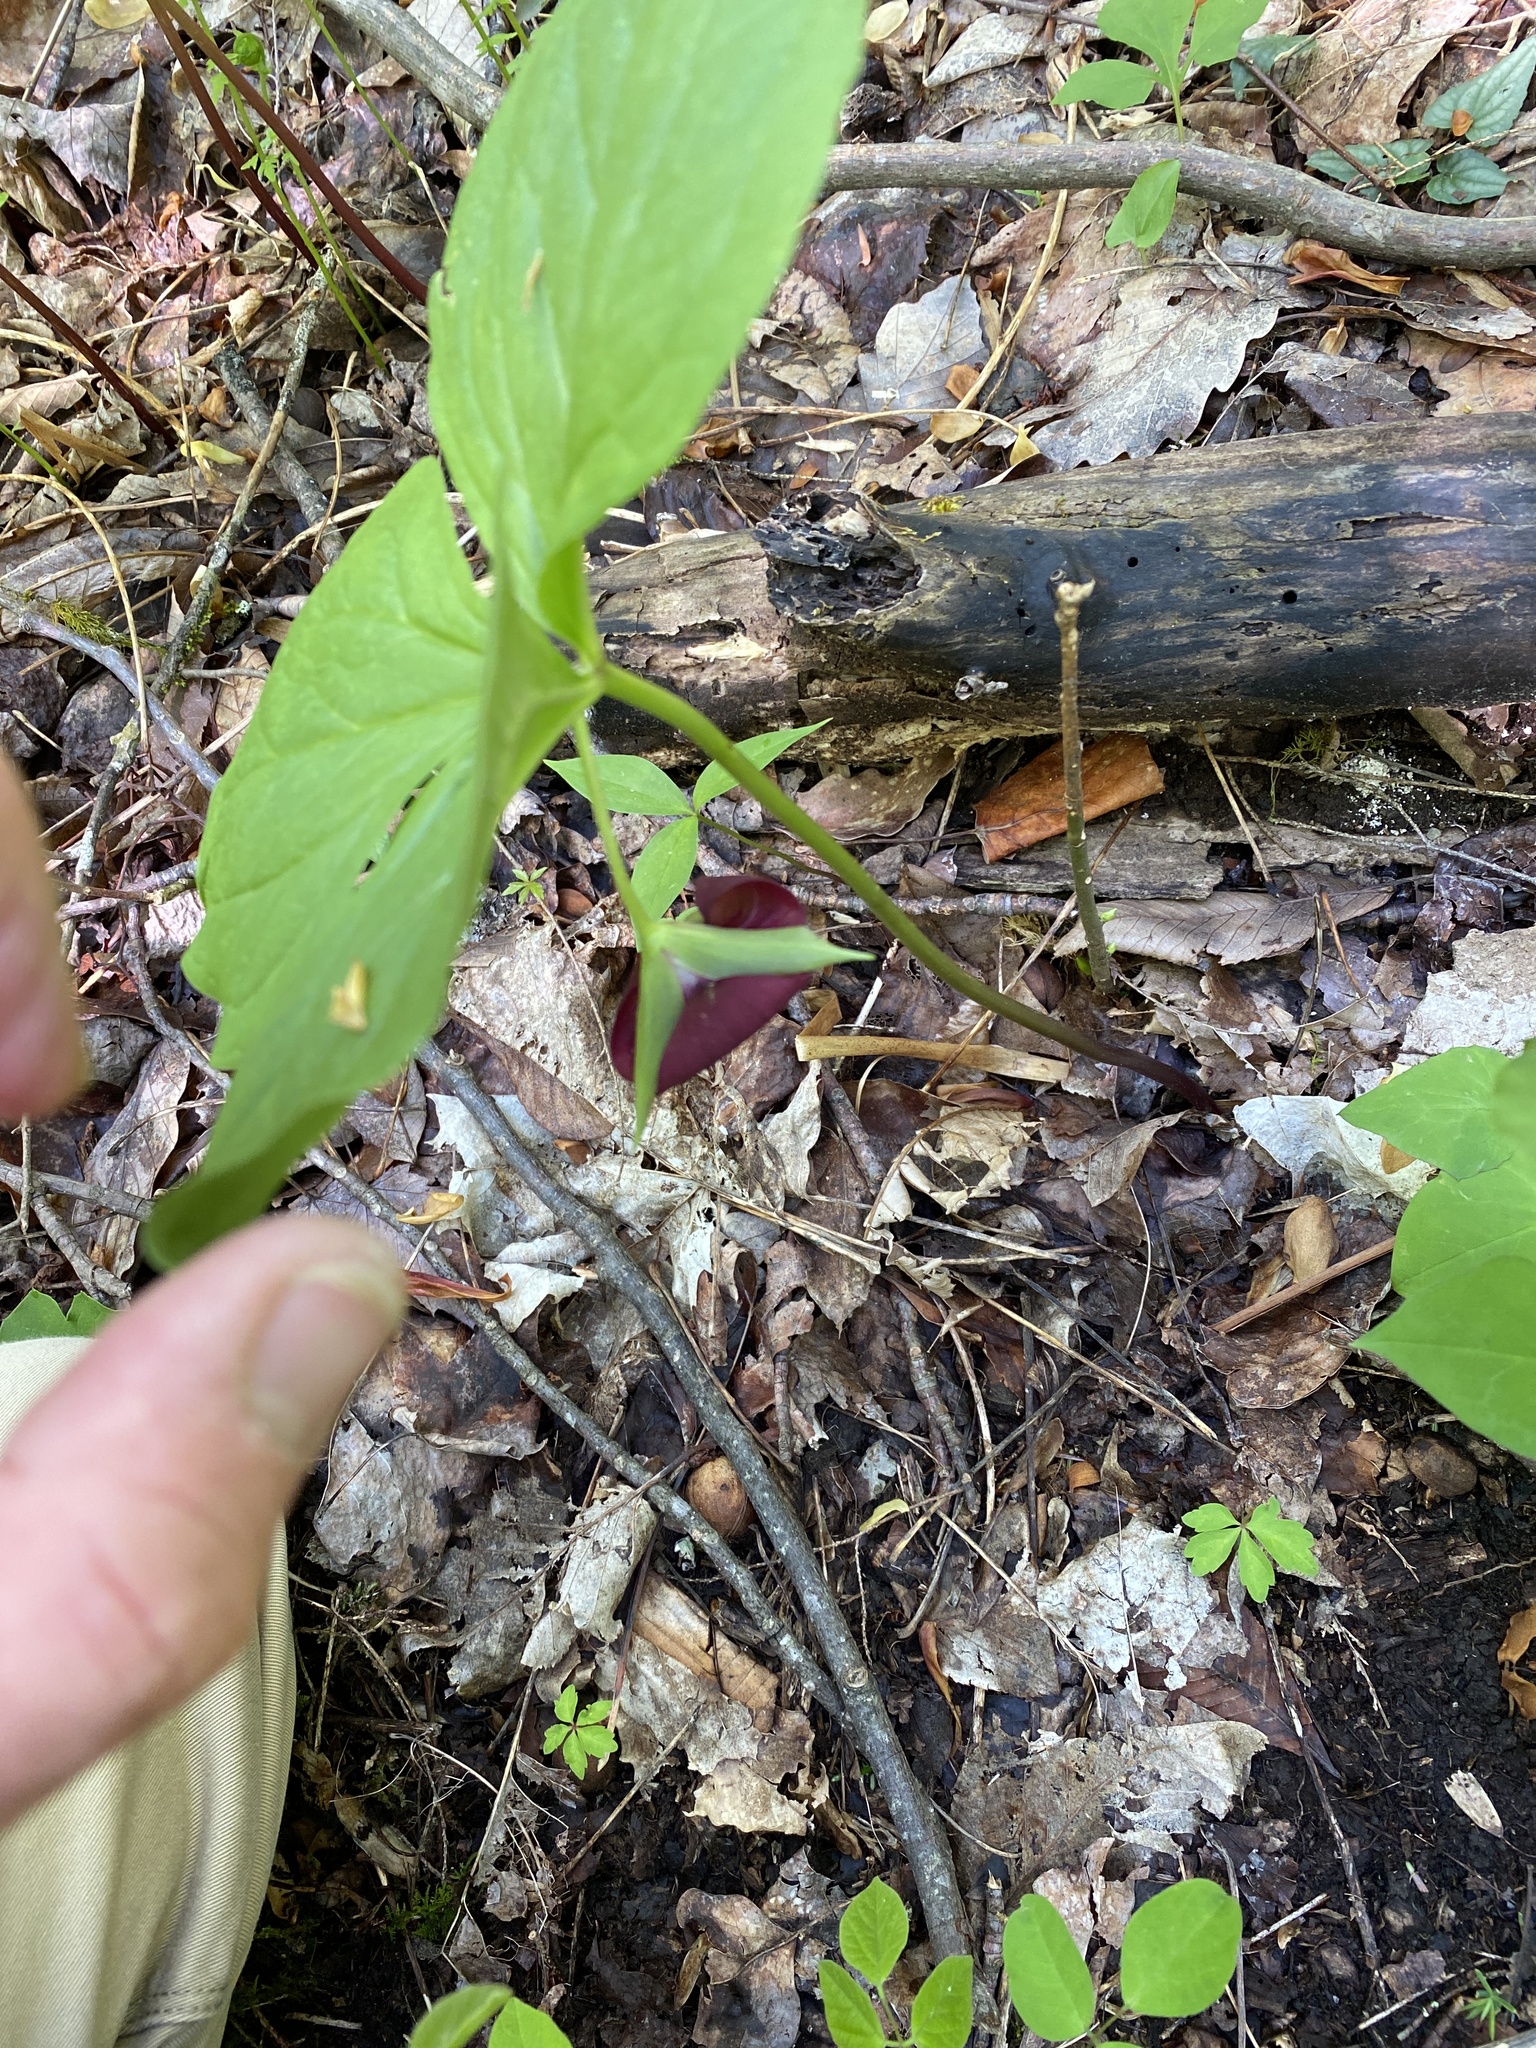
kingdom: Plantae
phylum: Tracheophyta
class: Liliopsida
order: Liliales
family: Melanthiaceae
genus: Trillium
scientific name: Trillium vaseyi
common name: Sweet trillium
